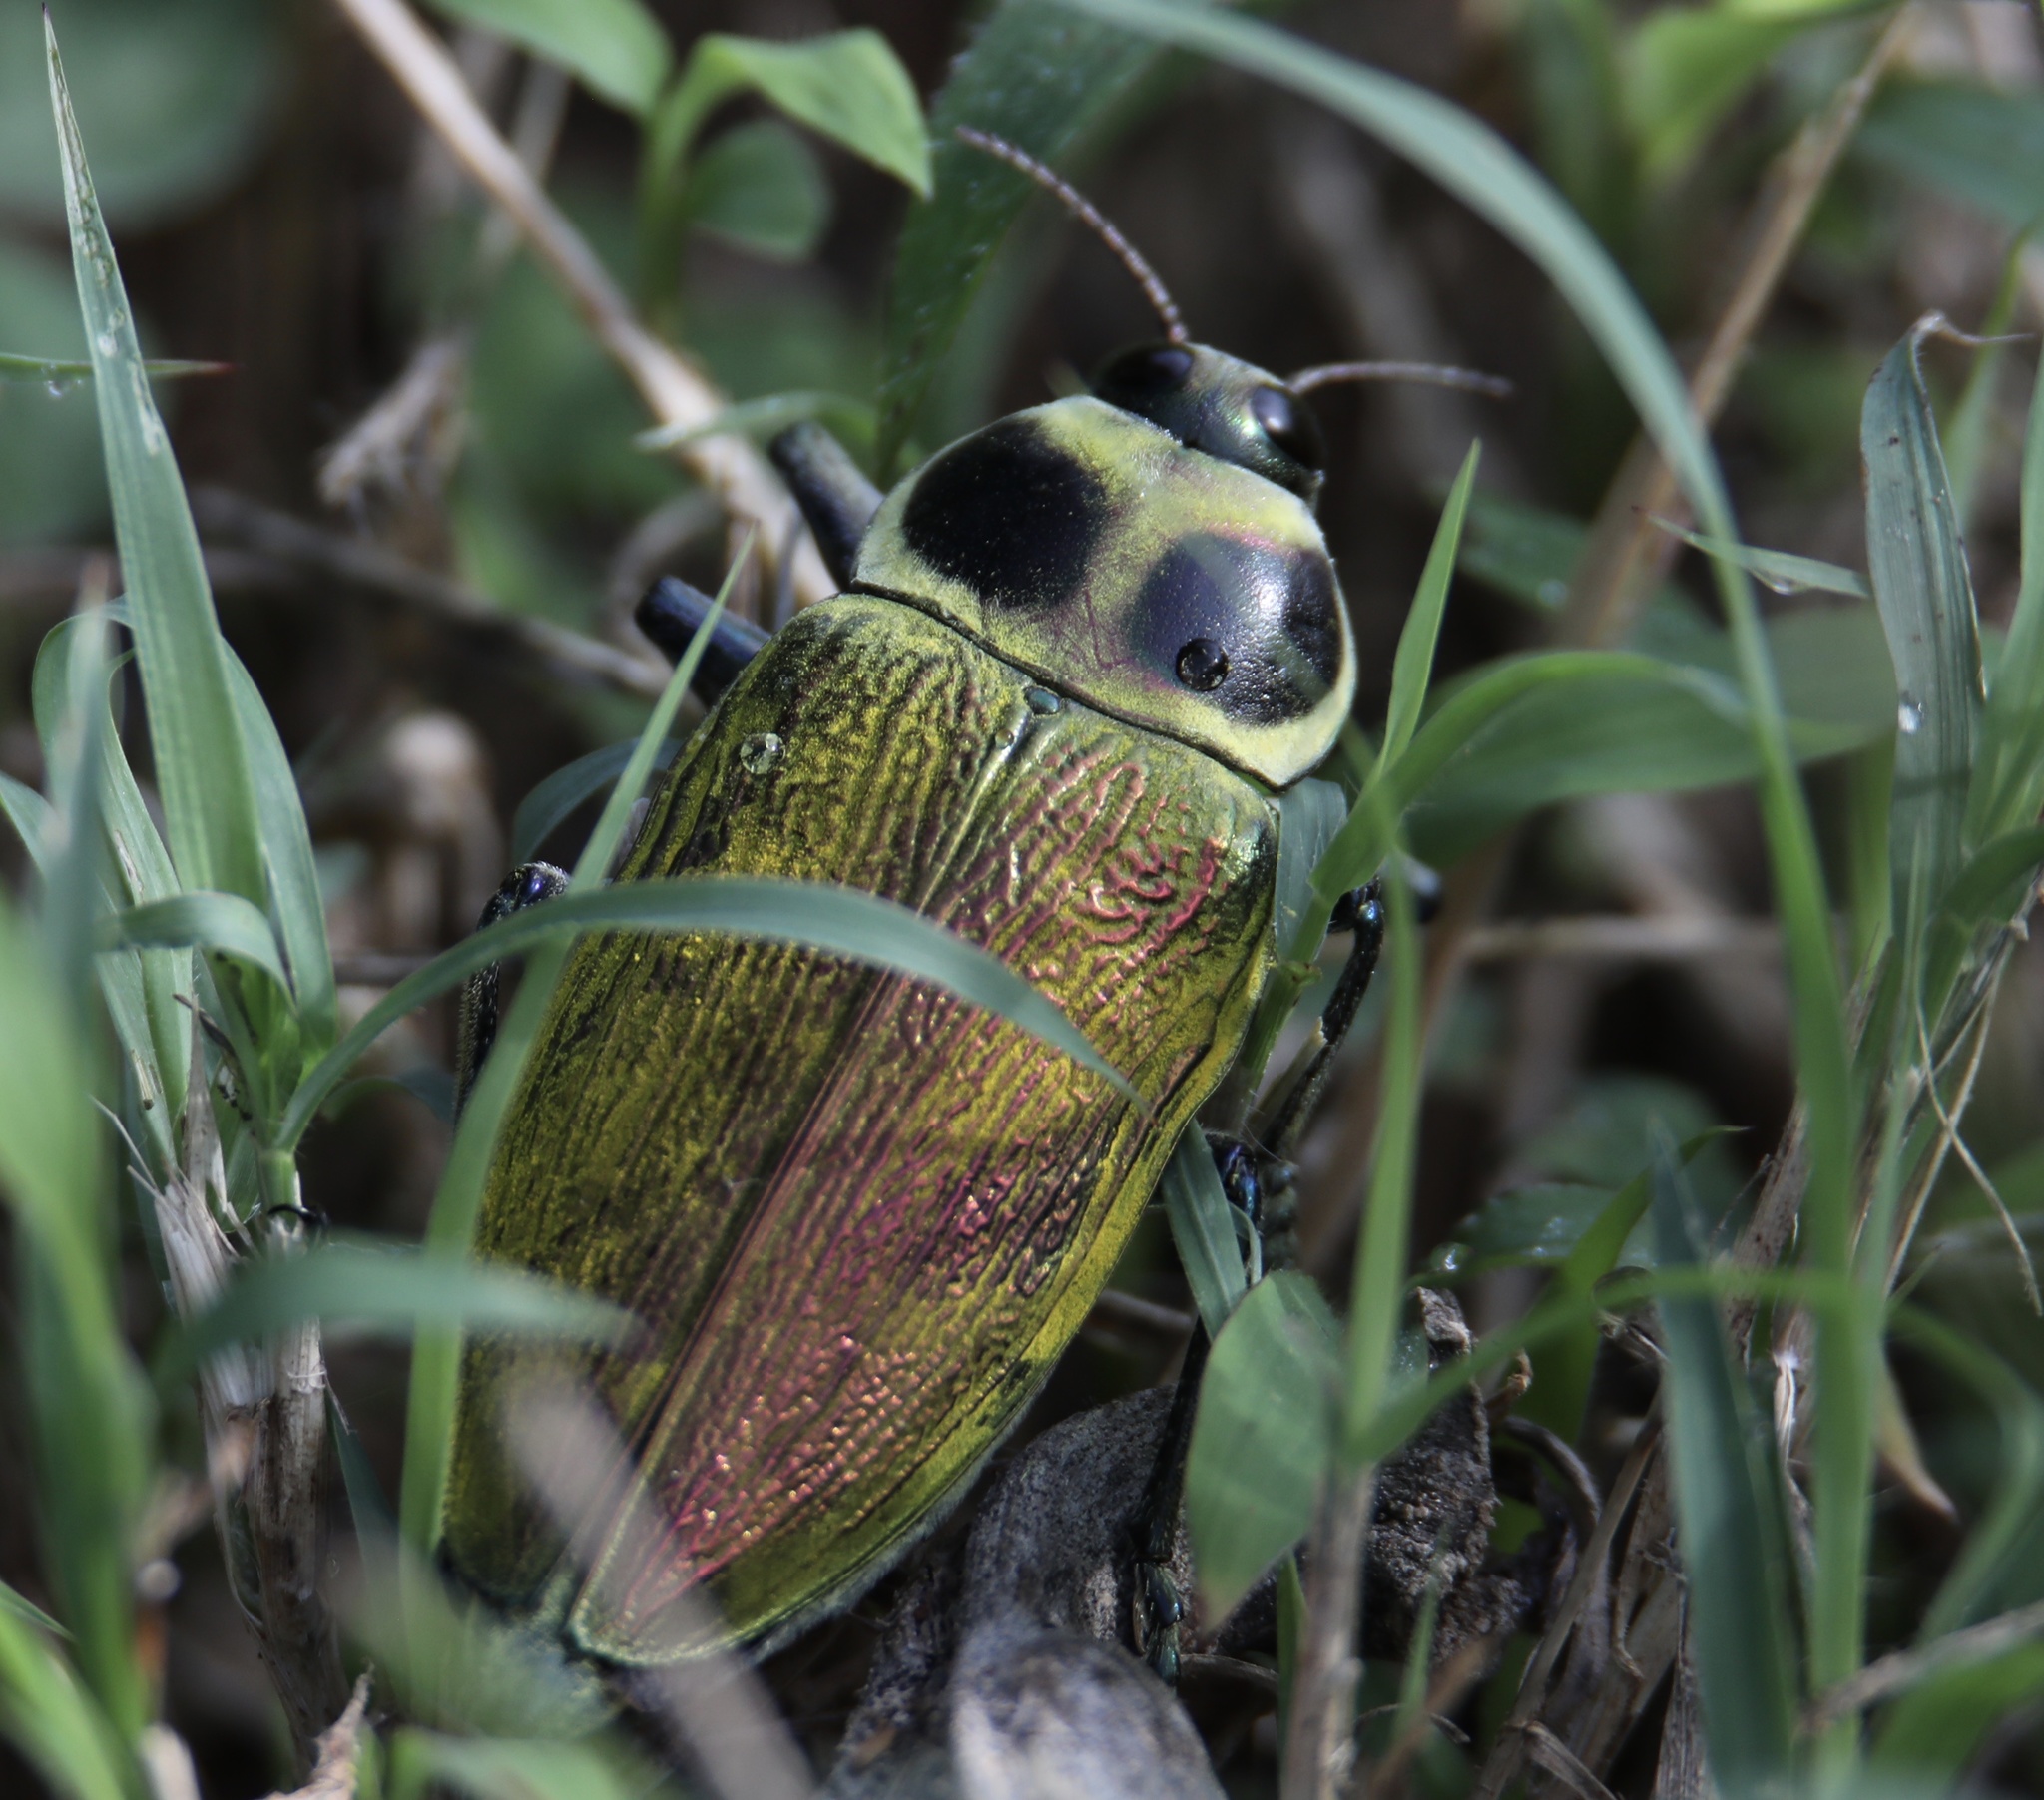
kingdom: Animalia
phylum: Arthropoda
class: Insecta
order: Coleoptera
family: Buprestidae
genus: Euchroma
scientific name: Euchroma giganteum
